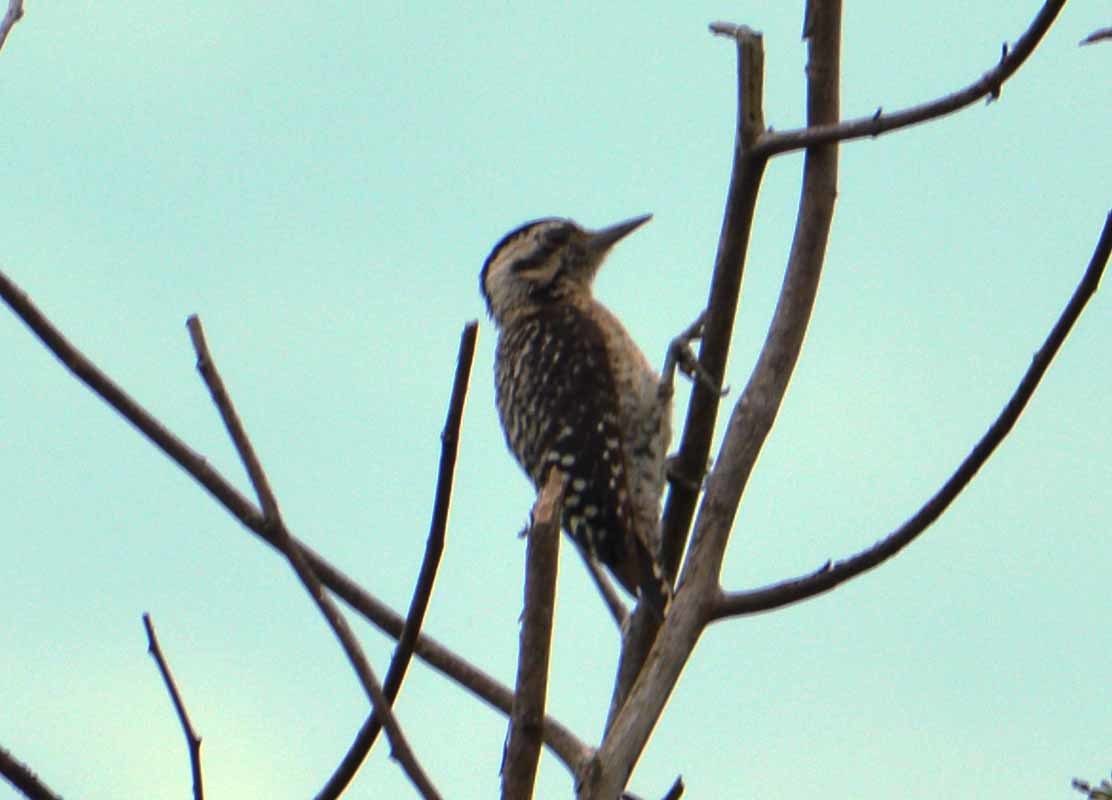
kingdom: Animalia
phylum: Chordata
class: Aves
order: Piciformes
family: Picidae
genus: Dryobates
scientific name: Dryobates scalaris
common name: Ladder-backed woodpecker
